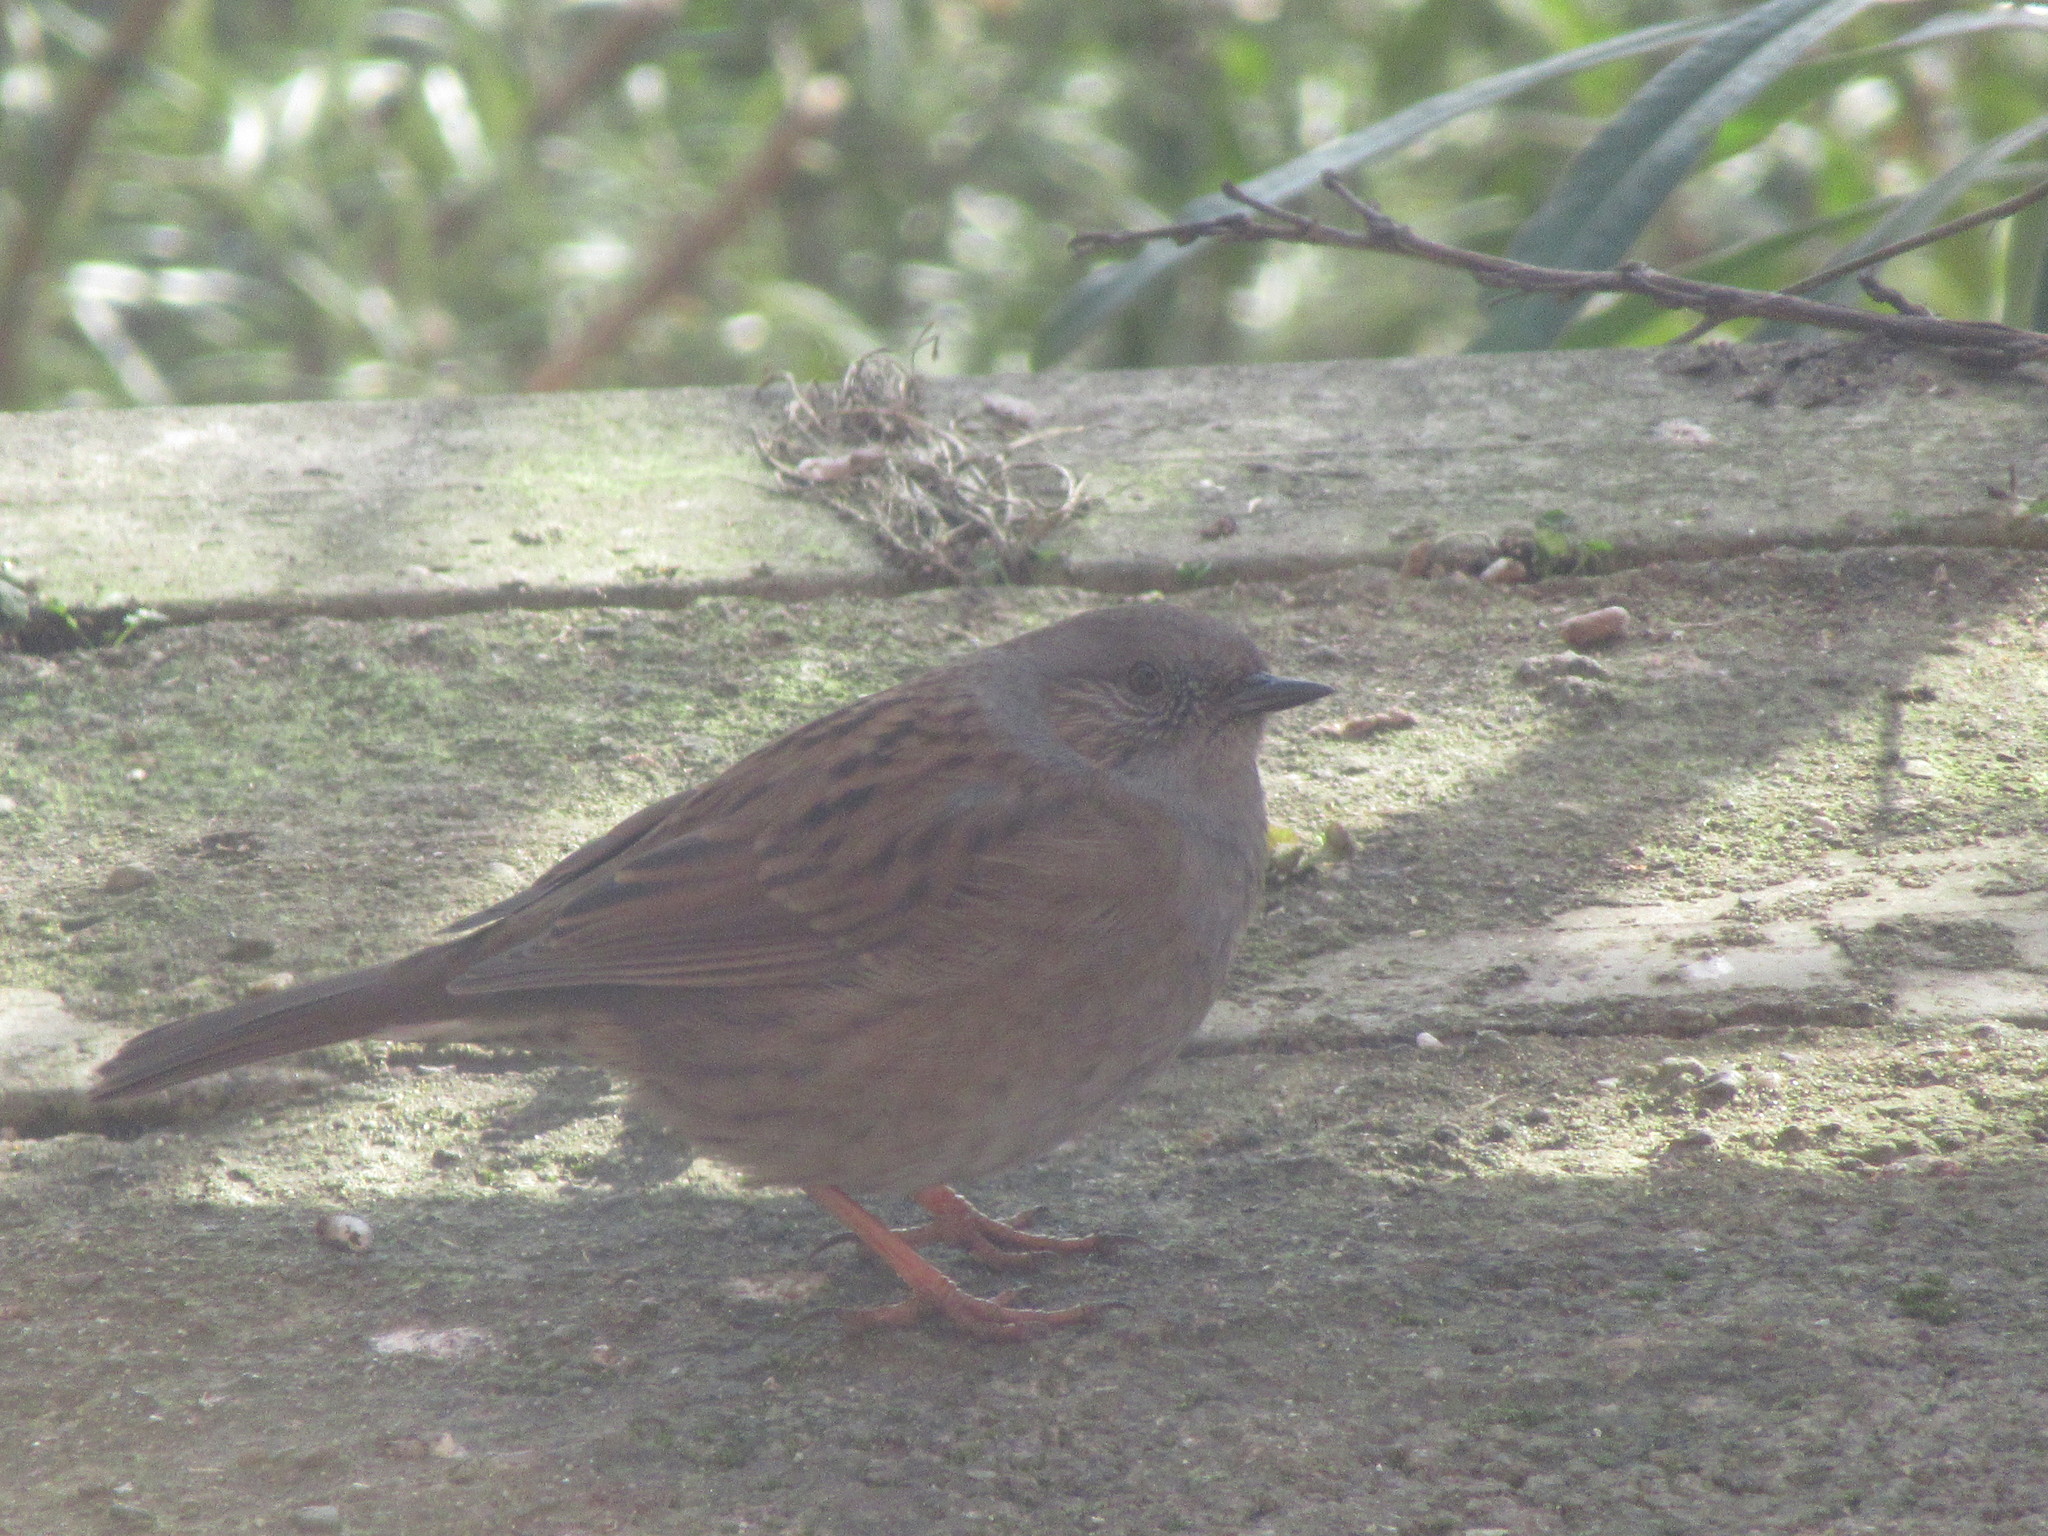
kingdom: Animalia
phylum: Chordata
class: Aves
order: Passeriformes
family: Prunellidae
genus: Prunella
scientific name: Prunella modularis
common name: Dunnock
